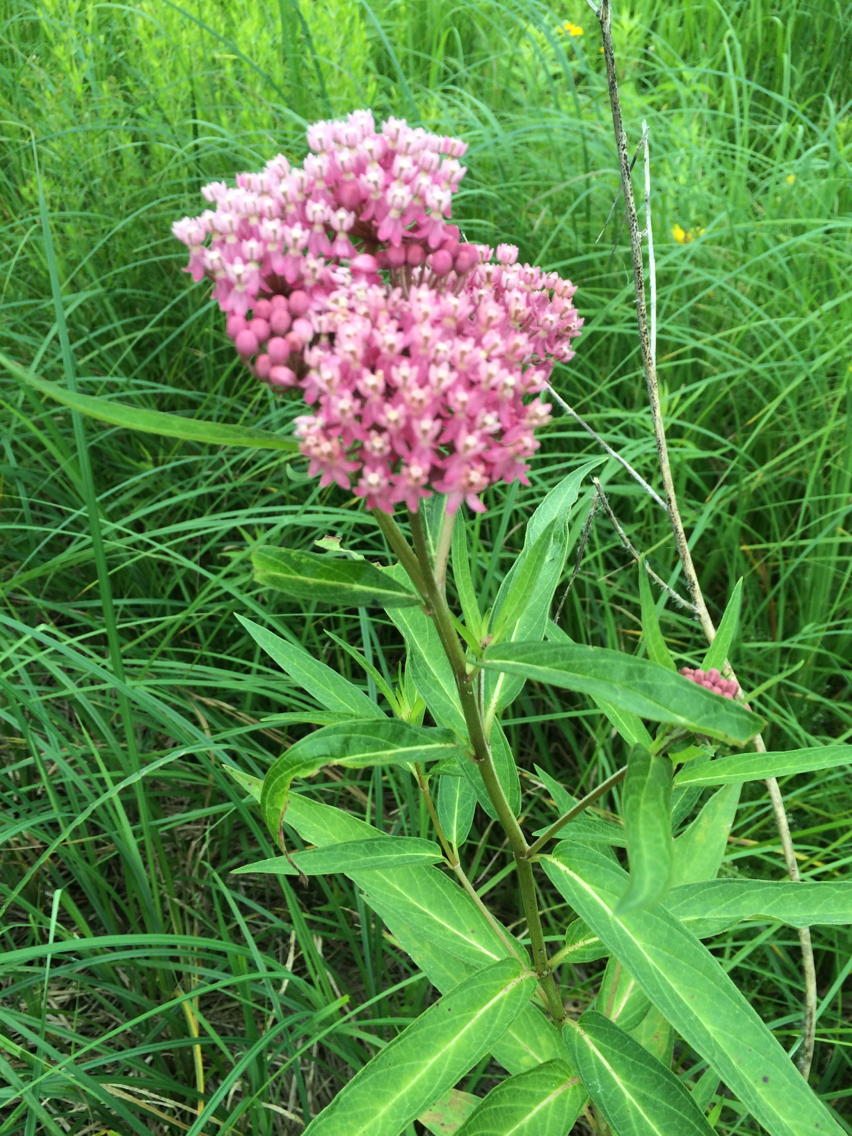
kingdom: Plantae
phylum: Tracheophyta
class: Magnoliopsida
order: Gentianales
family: Apocynaceae
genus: Asclepias
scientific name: Asclepias incarnata
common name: Swamp milkweed
